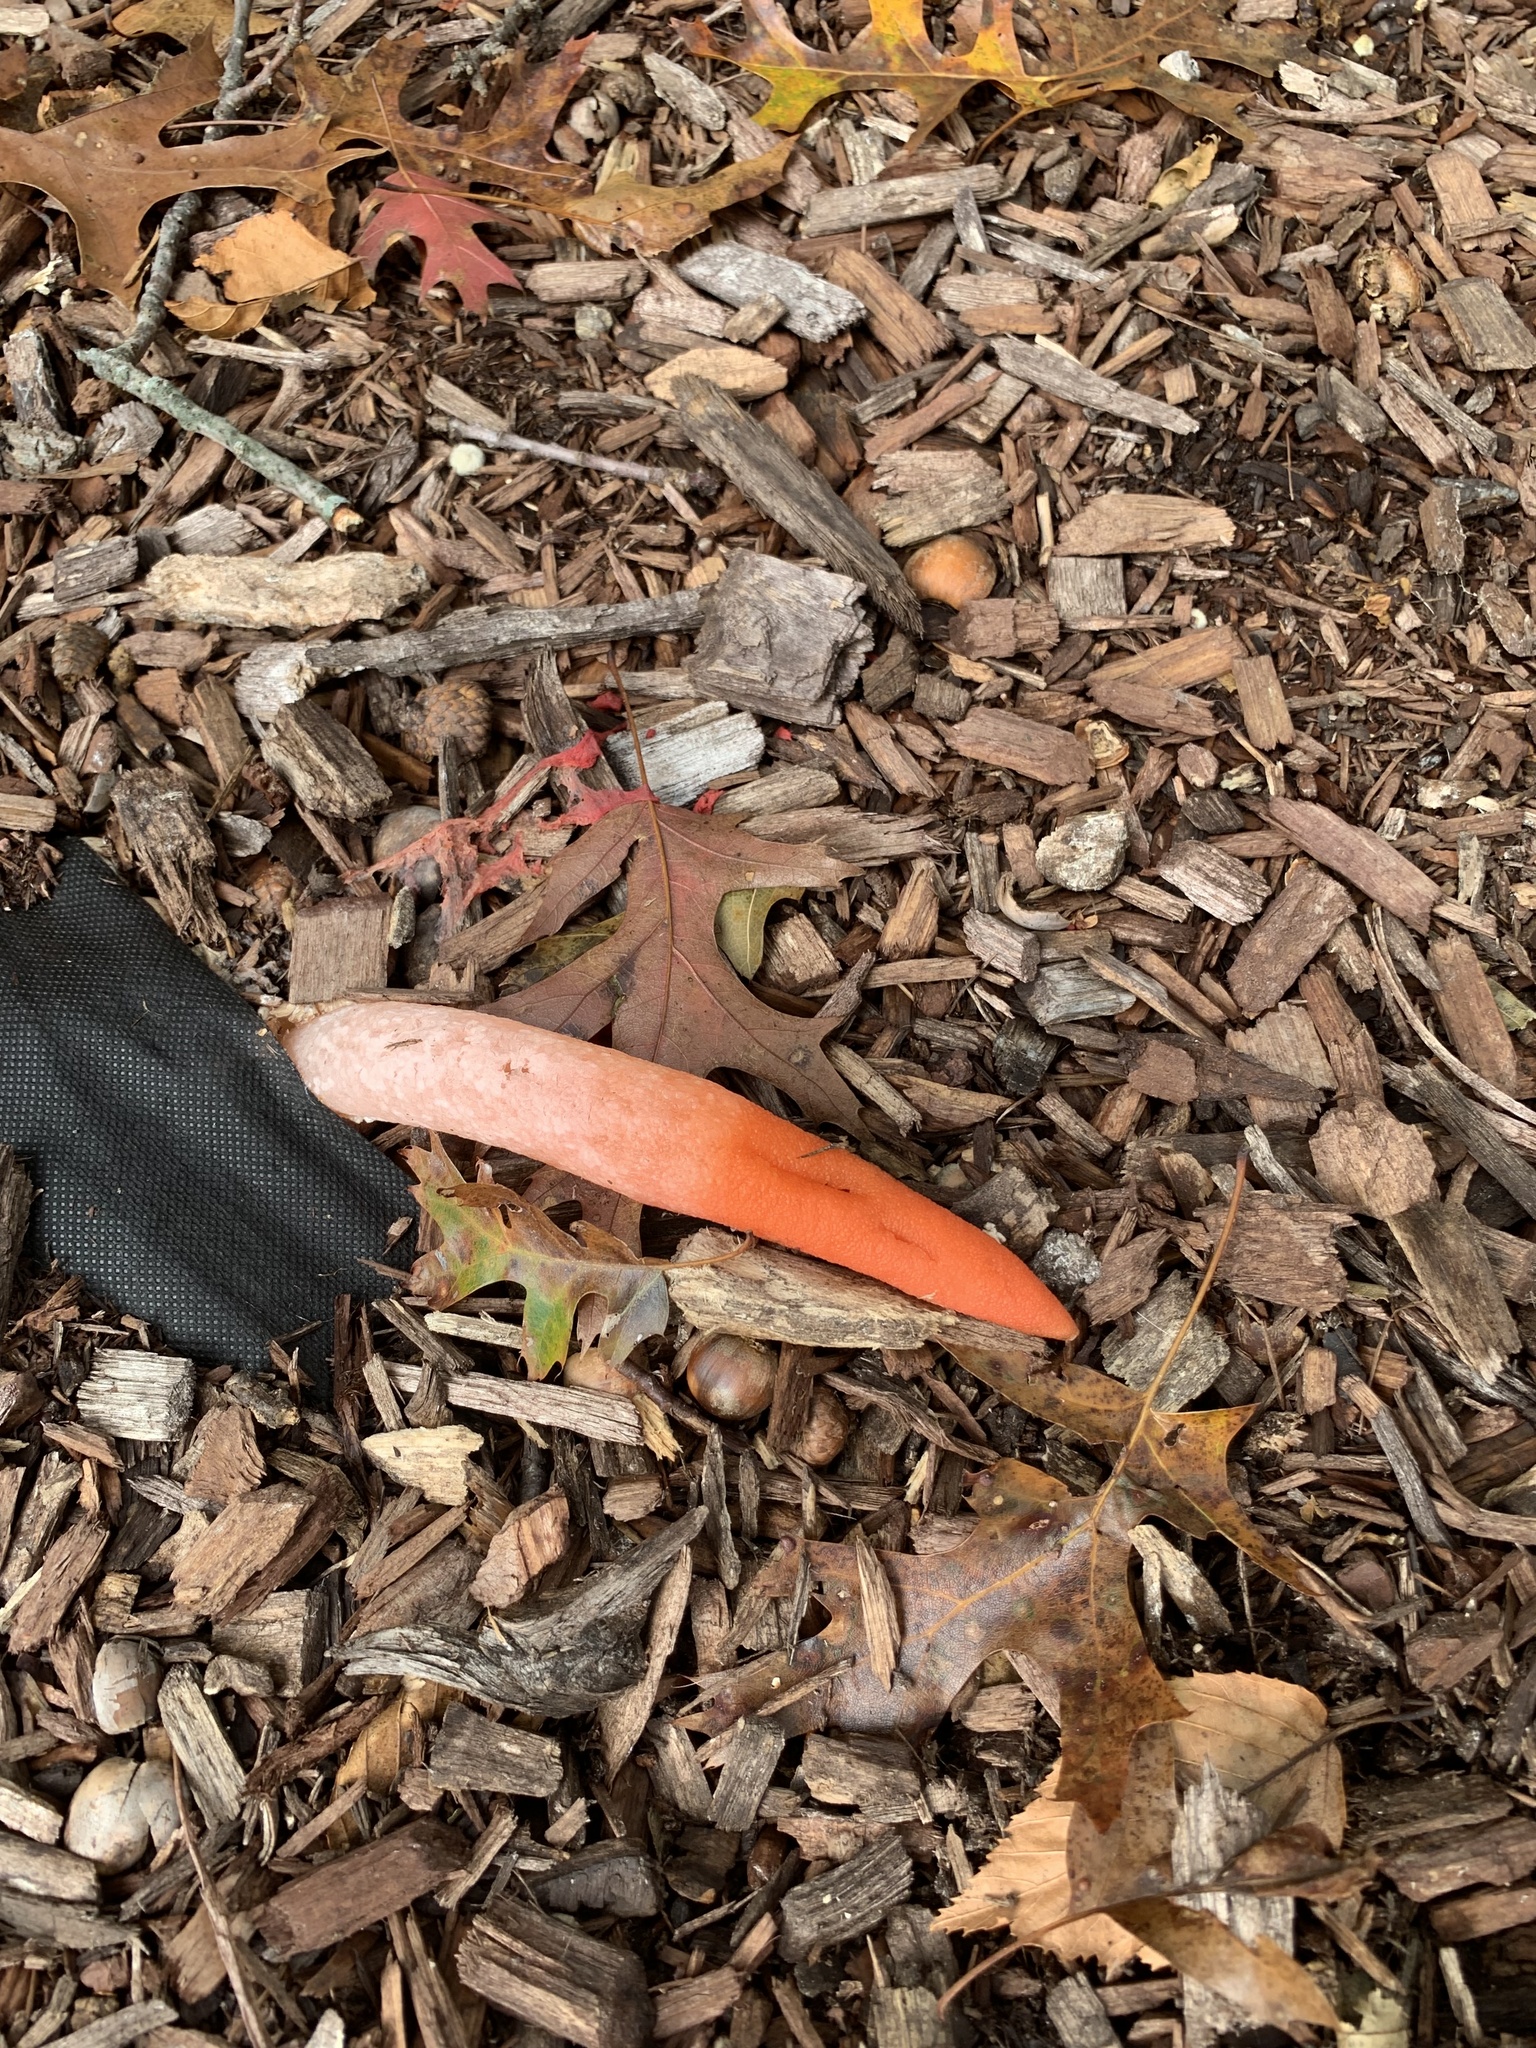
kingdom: Fungi
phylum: Basidiomycota
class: Agaricomycetes
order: Phallales
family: Phallaceae
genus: Mutinus
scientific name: Mutinus elegans
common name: Devil's dipstick
